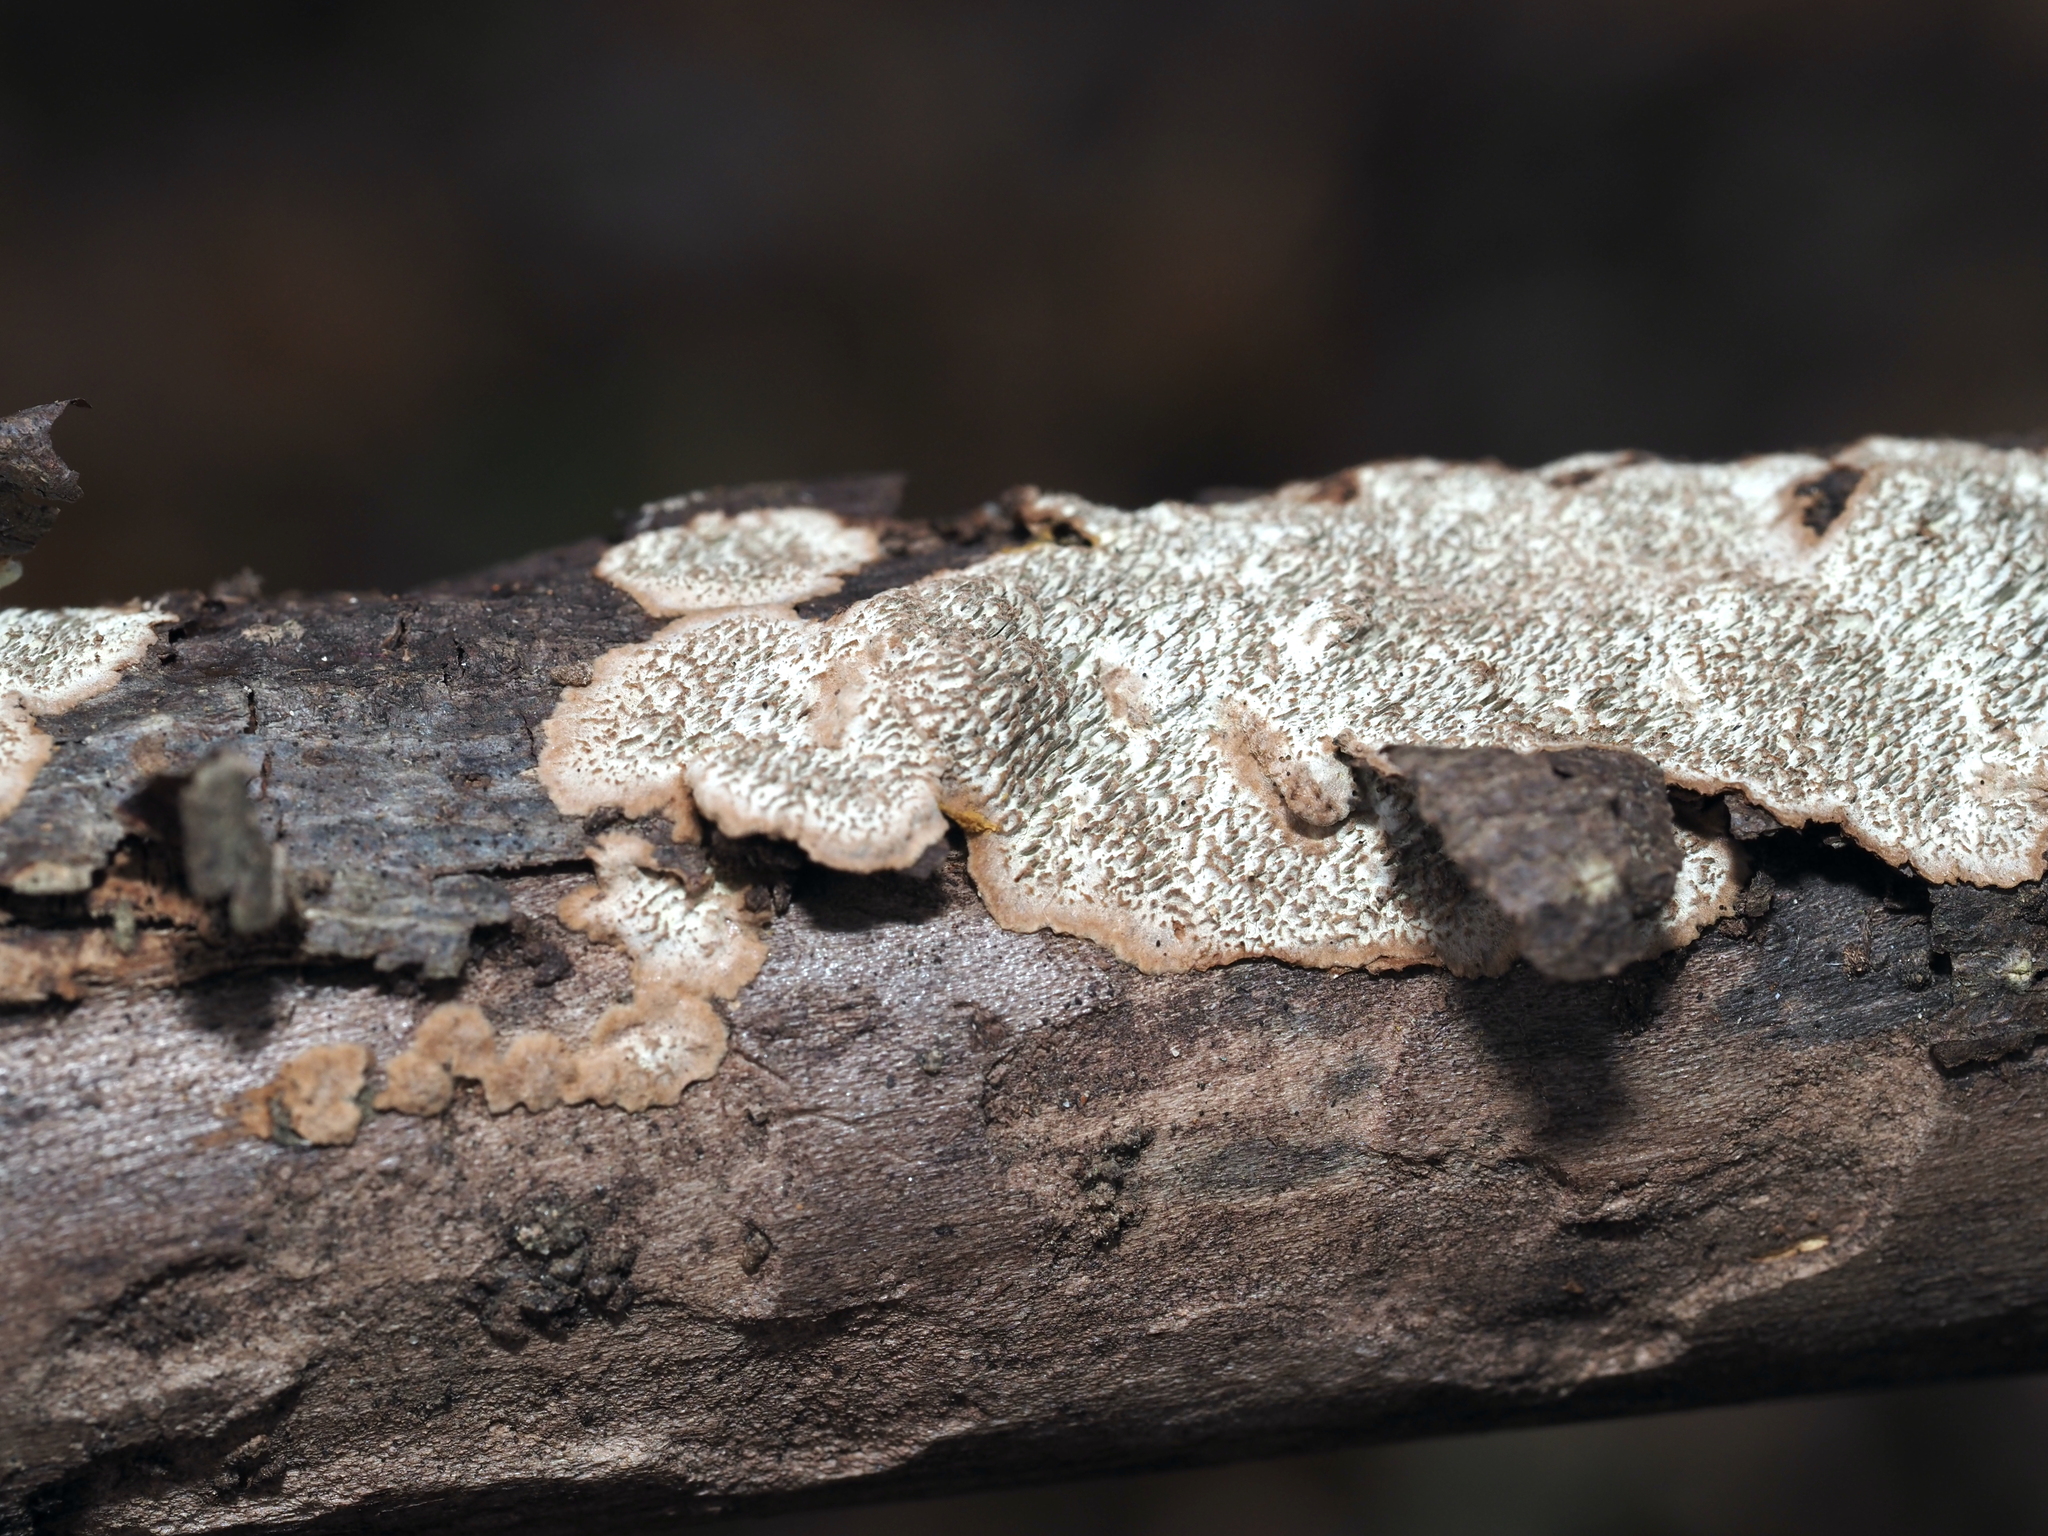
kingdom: Fungi
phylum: Basidiomycota
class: Agaricomycetes
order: Polyporales
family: Polyporaceae
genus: Dentocorticium
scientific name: Dentocorticium portoricense
